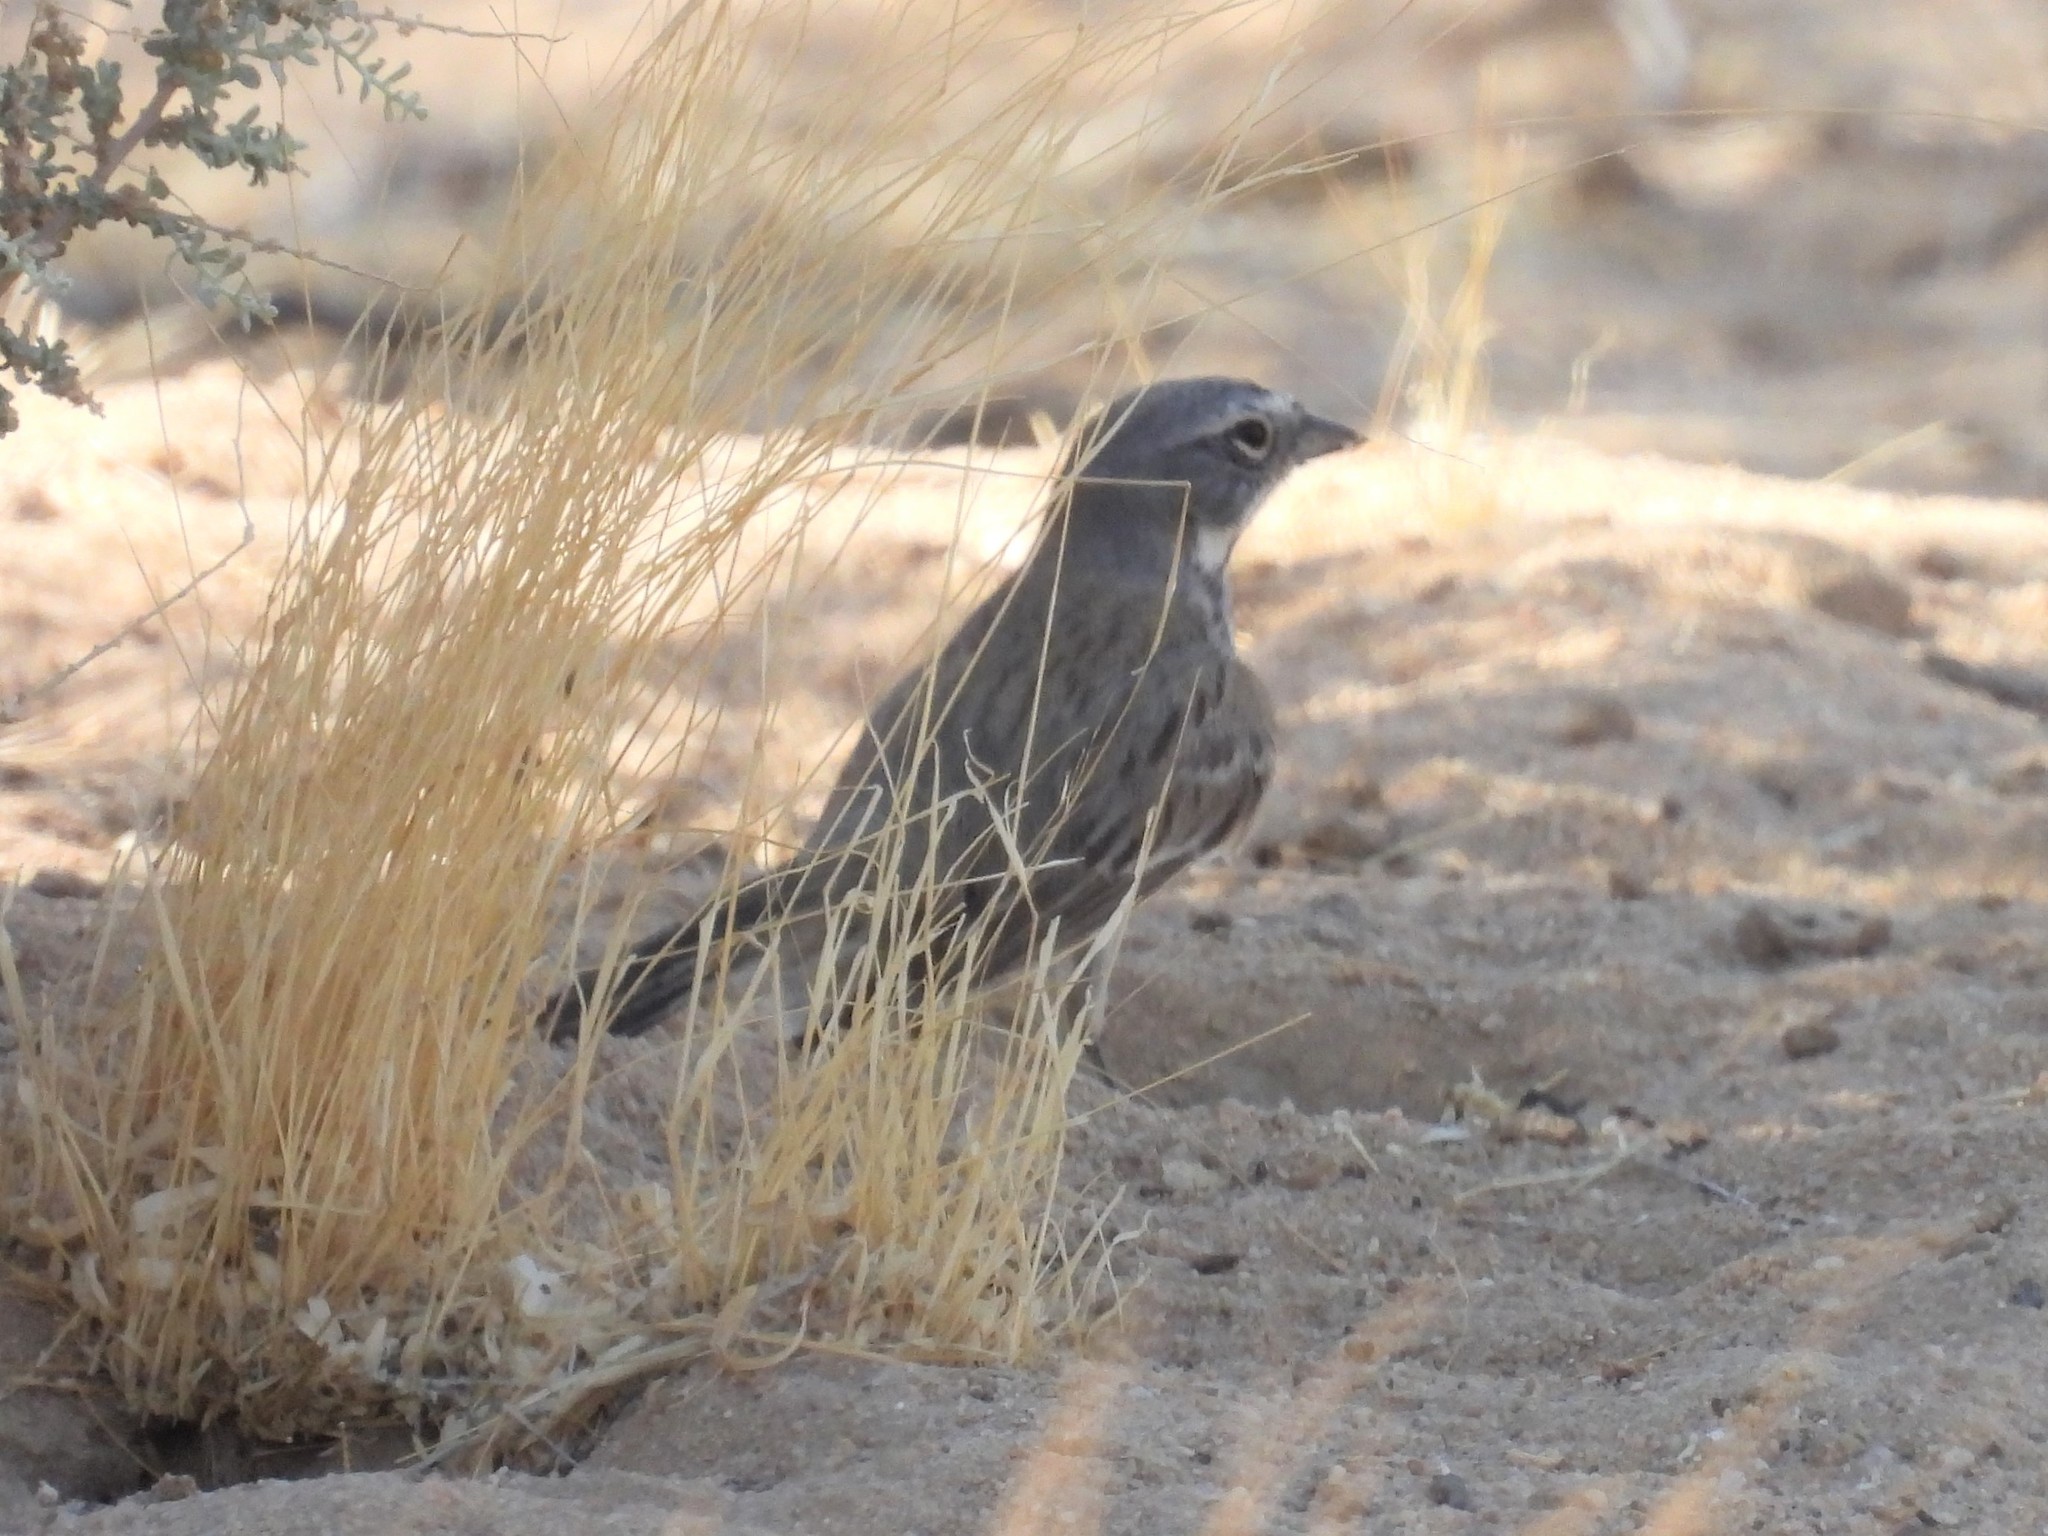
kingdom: Animalia
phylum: Chordata
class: Aves
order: Passeriformes
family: Passerellidae
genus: Artemisiospiza
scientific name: Artemisiospiza belli
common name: Bell's sparrow
